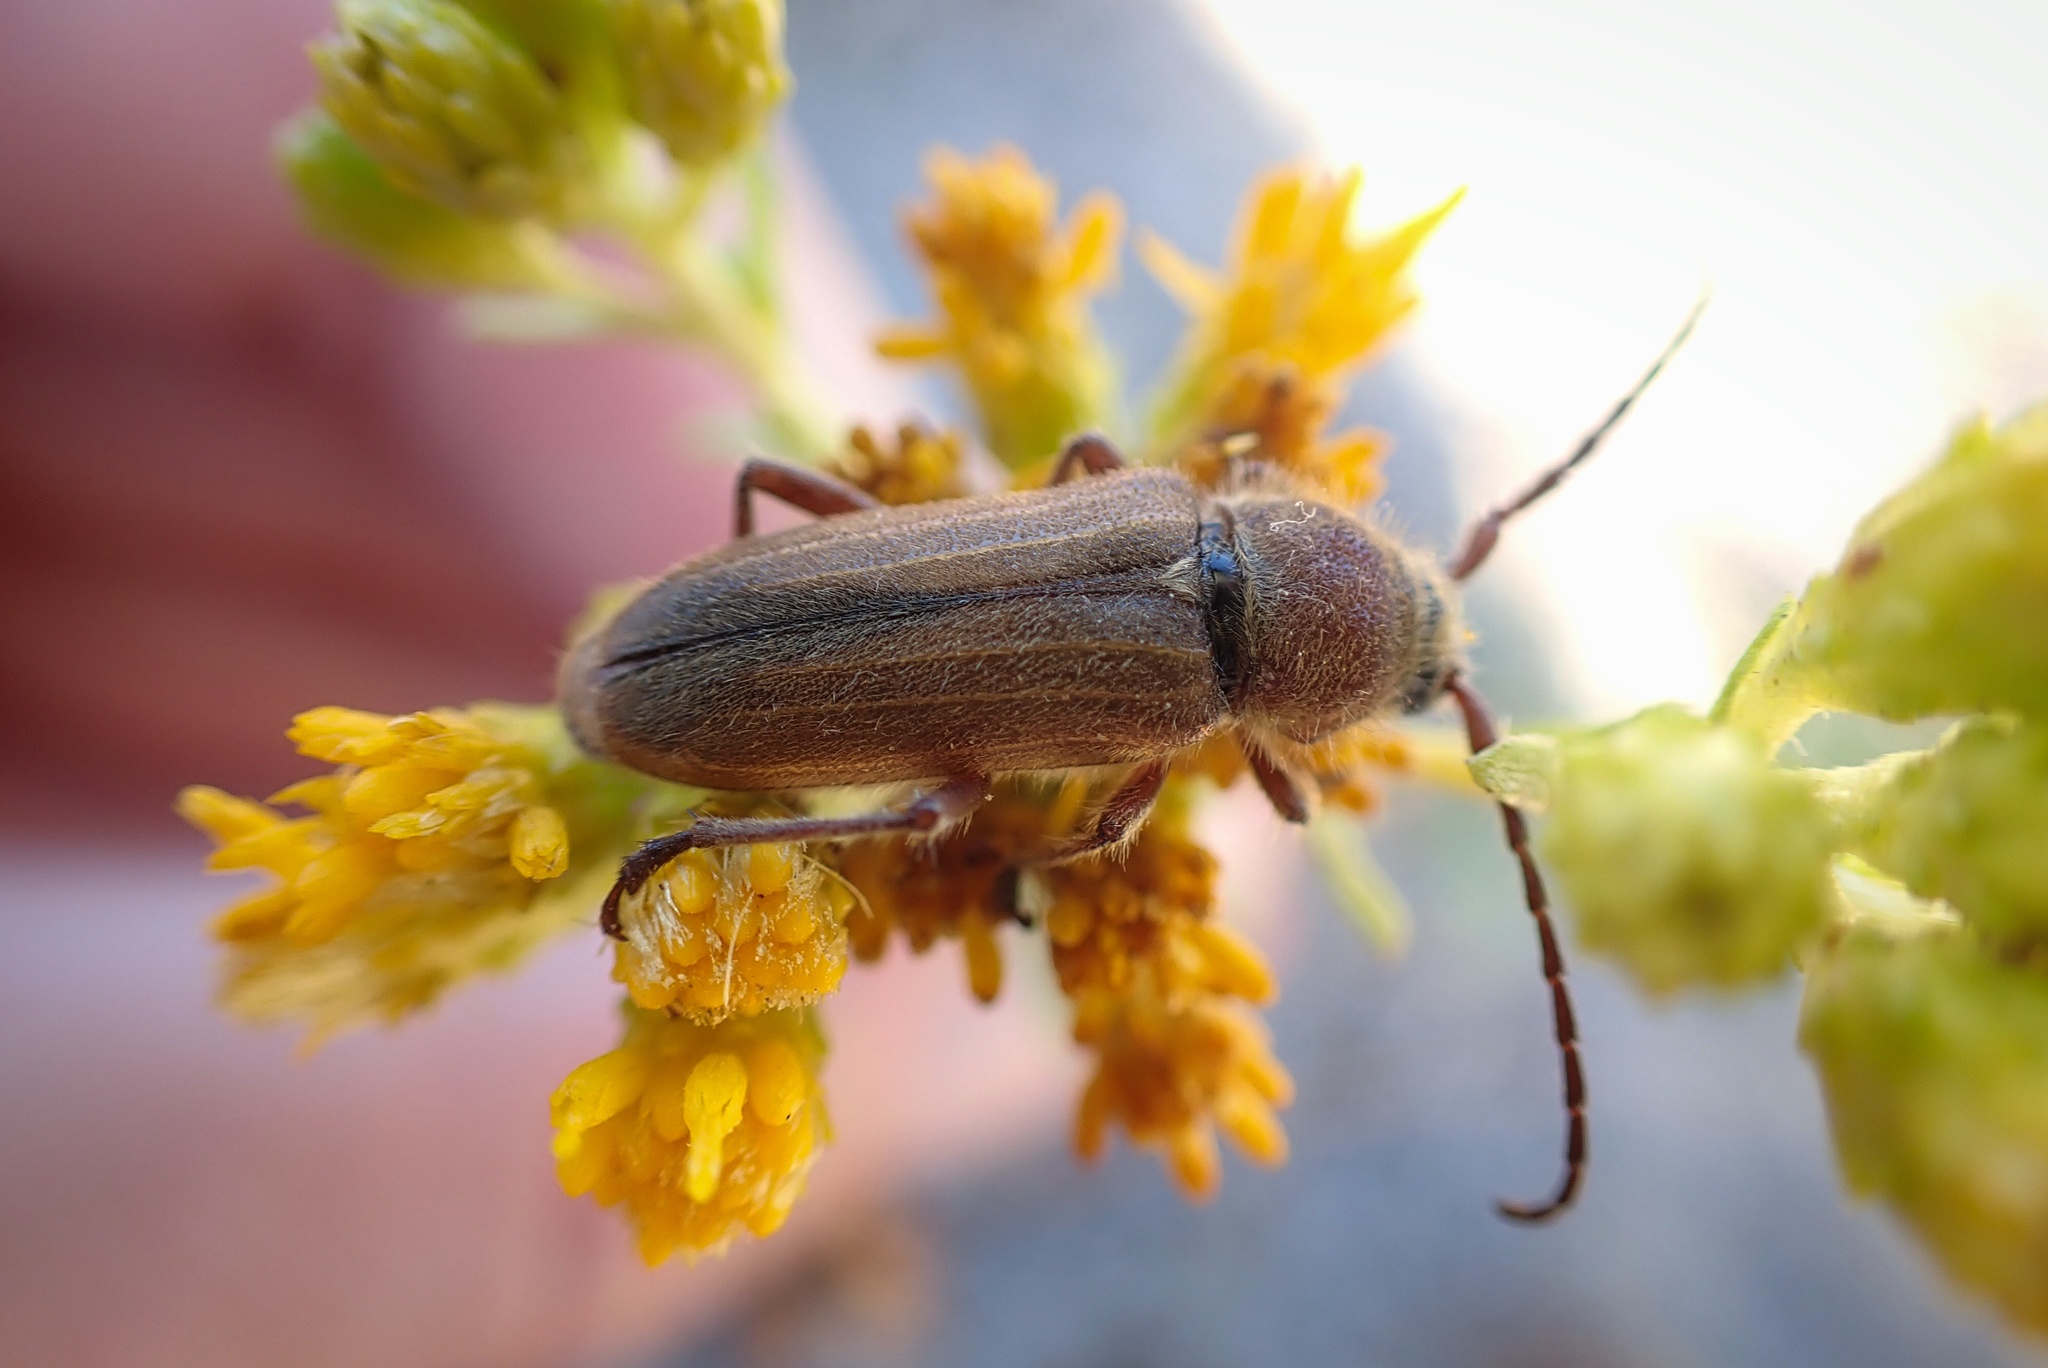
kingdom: Animalia
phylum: Arthropoda
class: Insecta
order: Coleoptera
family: Cerambycidae
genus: Crossidius
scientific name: Crossidius testaceus
